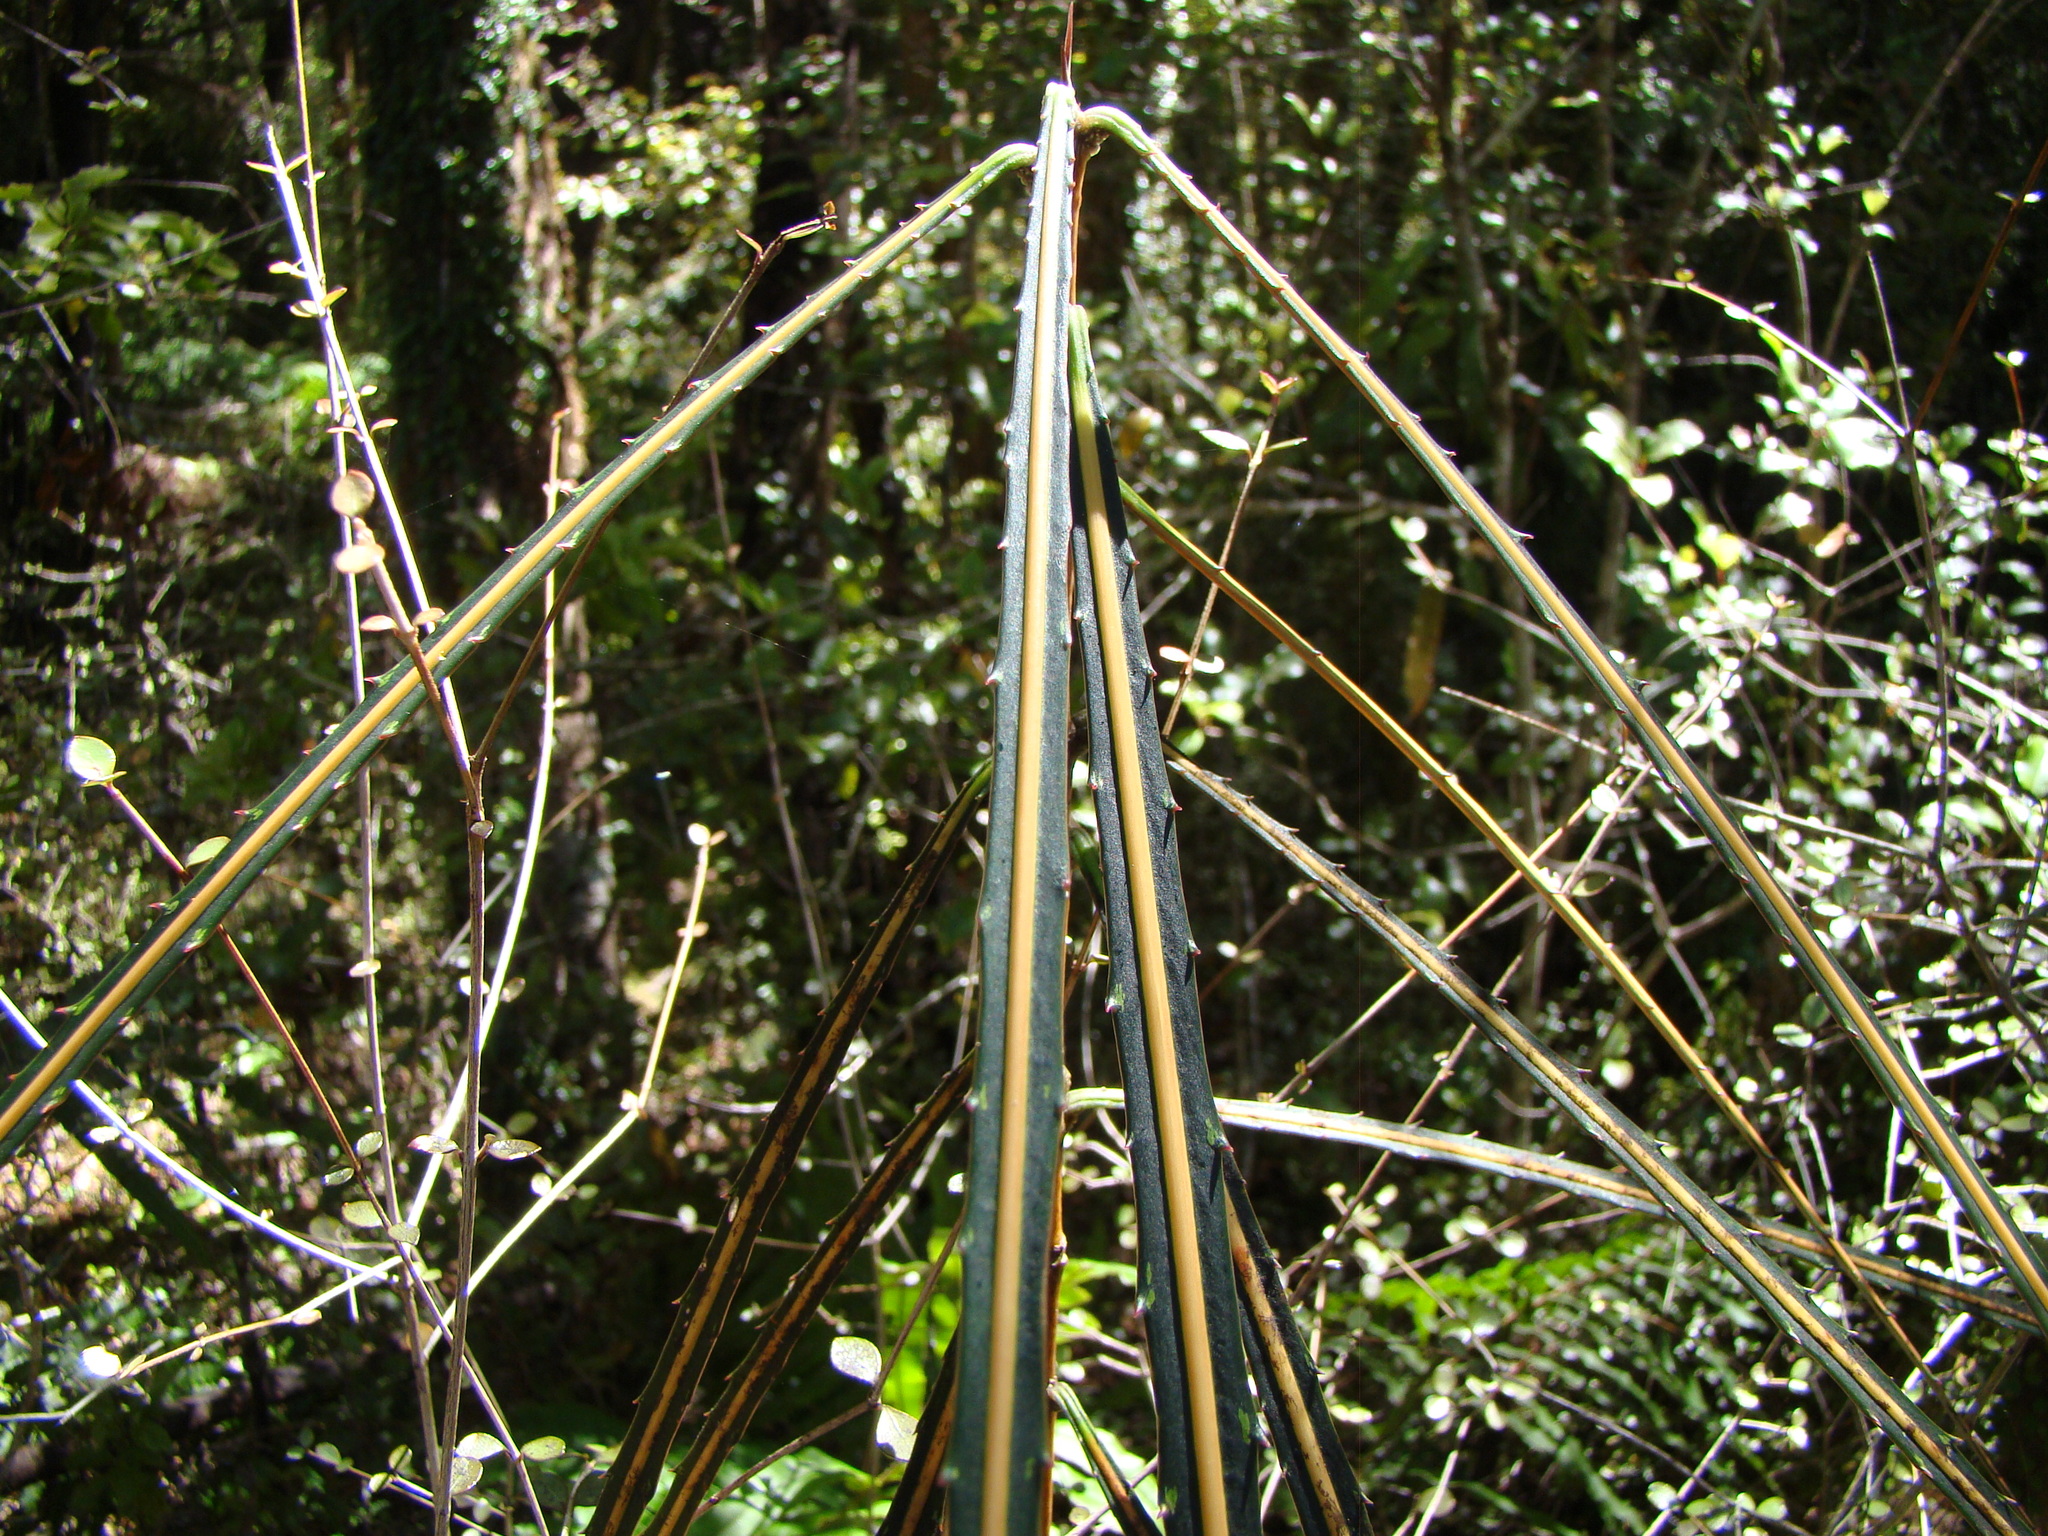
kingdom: Plantae
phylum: Tracheophyta
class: Magnoliopsida
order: Apiales
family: Araliaceae
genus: Pseudopanax
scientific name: Pseudopanax crassifolius
